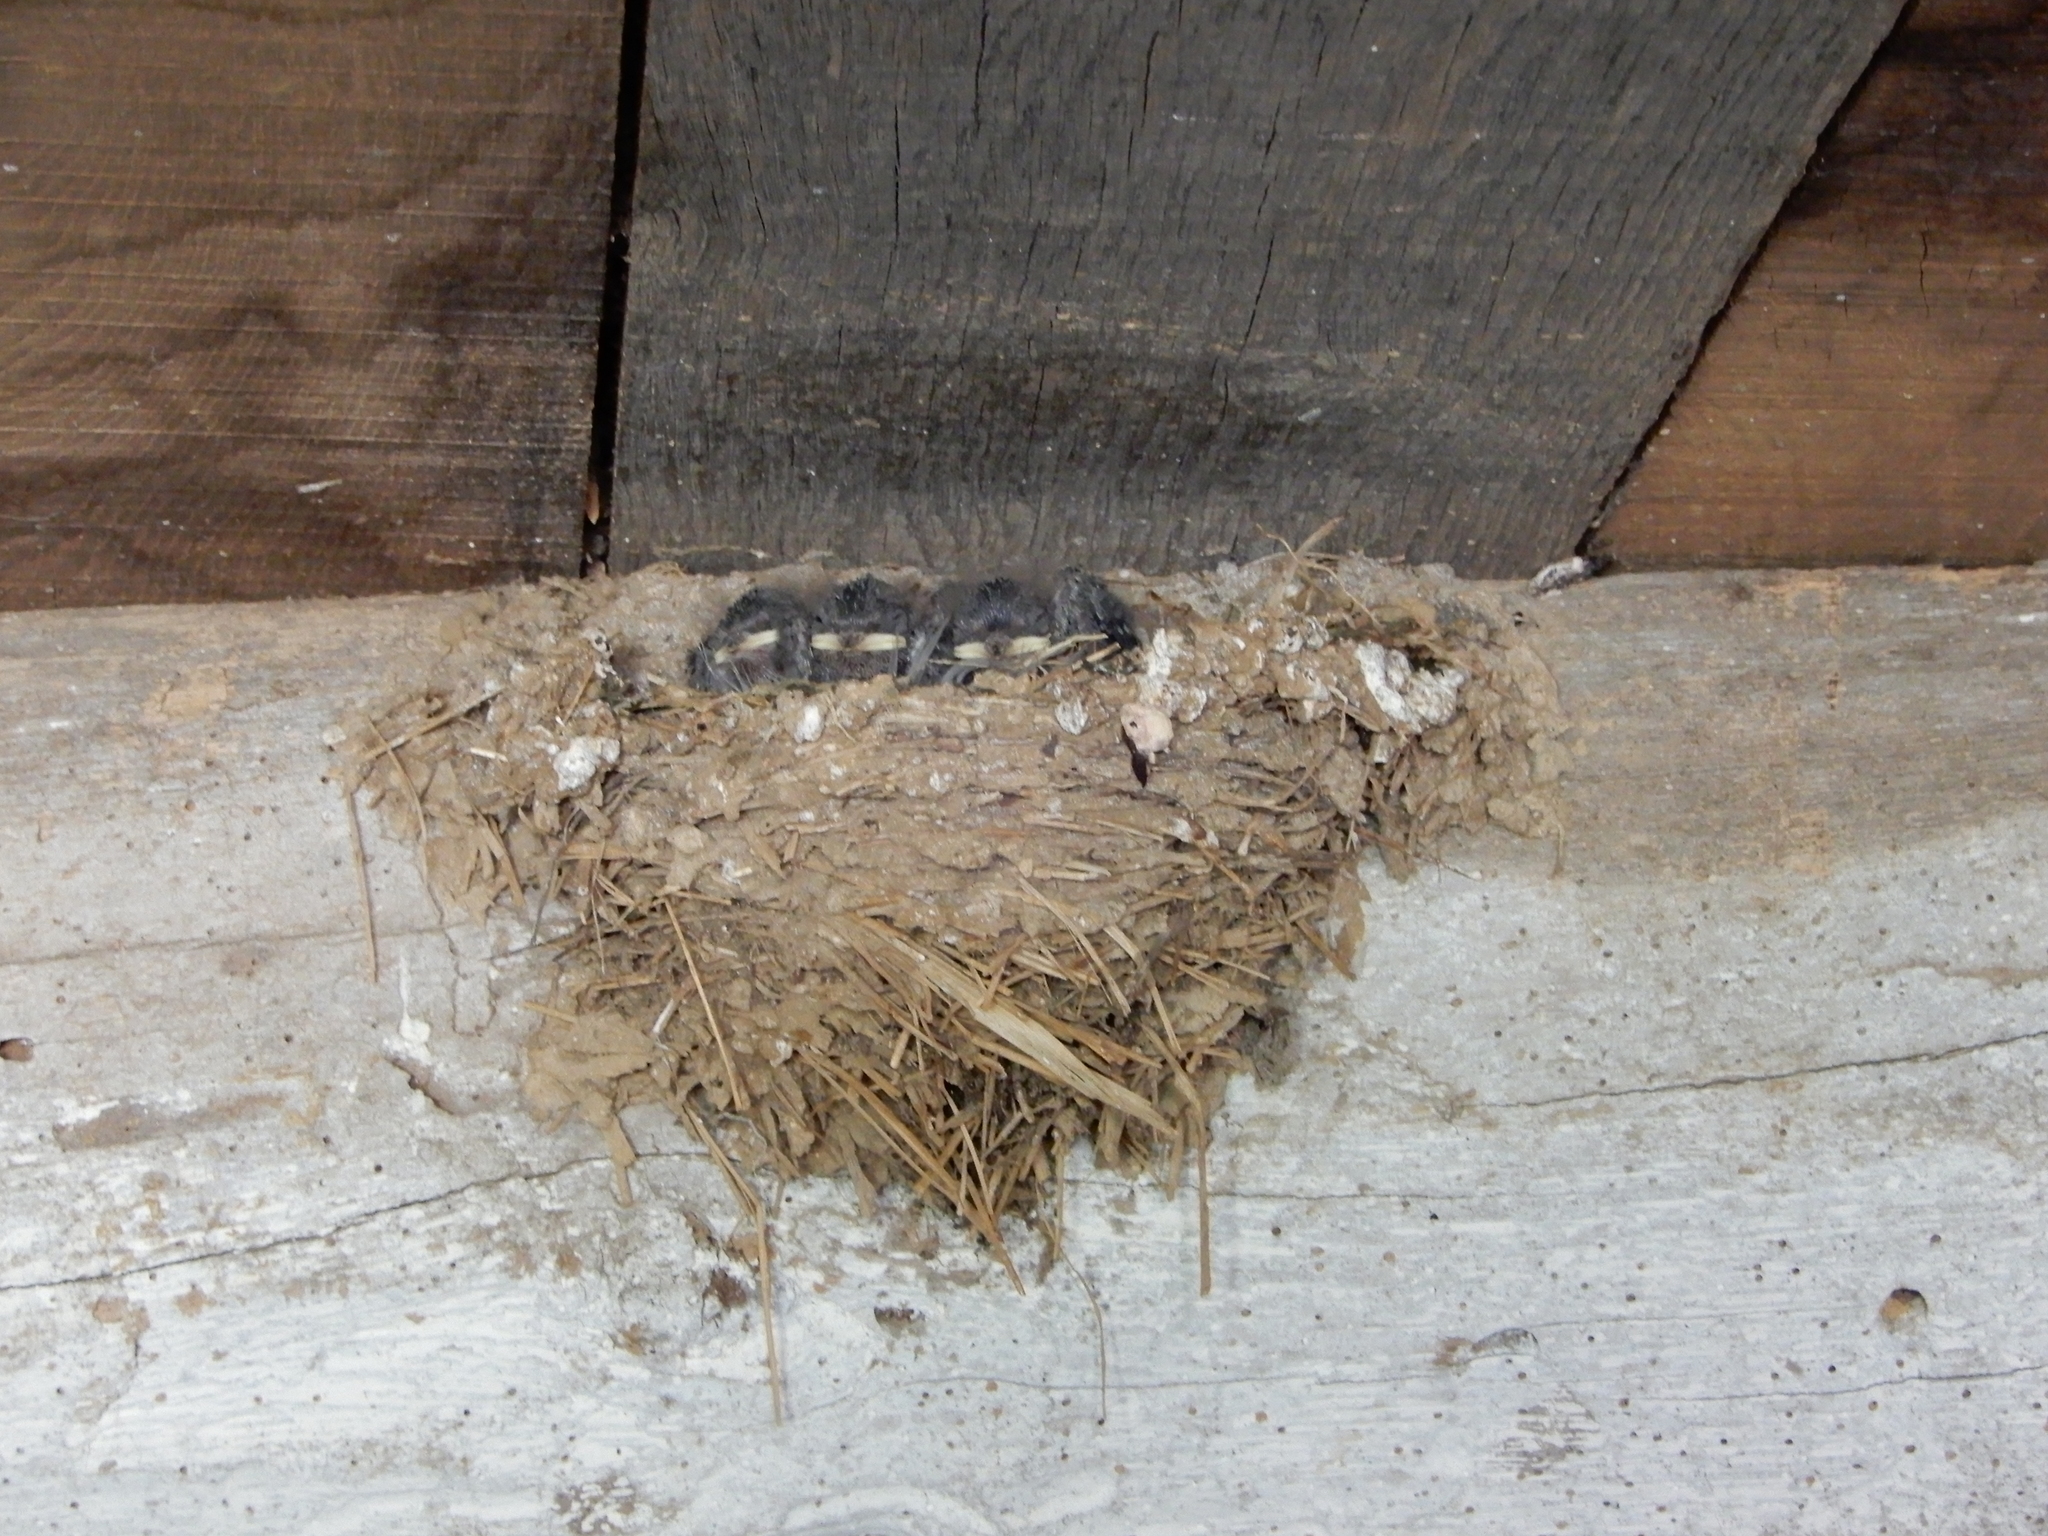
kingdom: Animalia
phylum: Chordata
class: Aves
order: Passeriformes
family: Hirundinidae
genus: Hirundo
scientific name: Hirundo rustica
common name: Barn swallow
